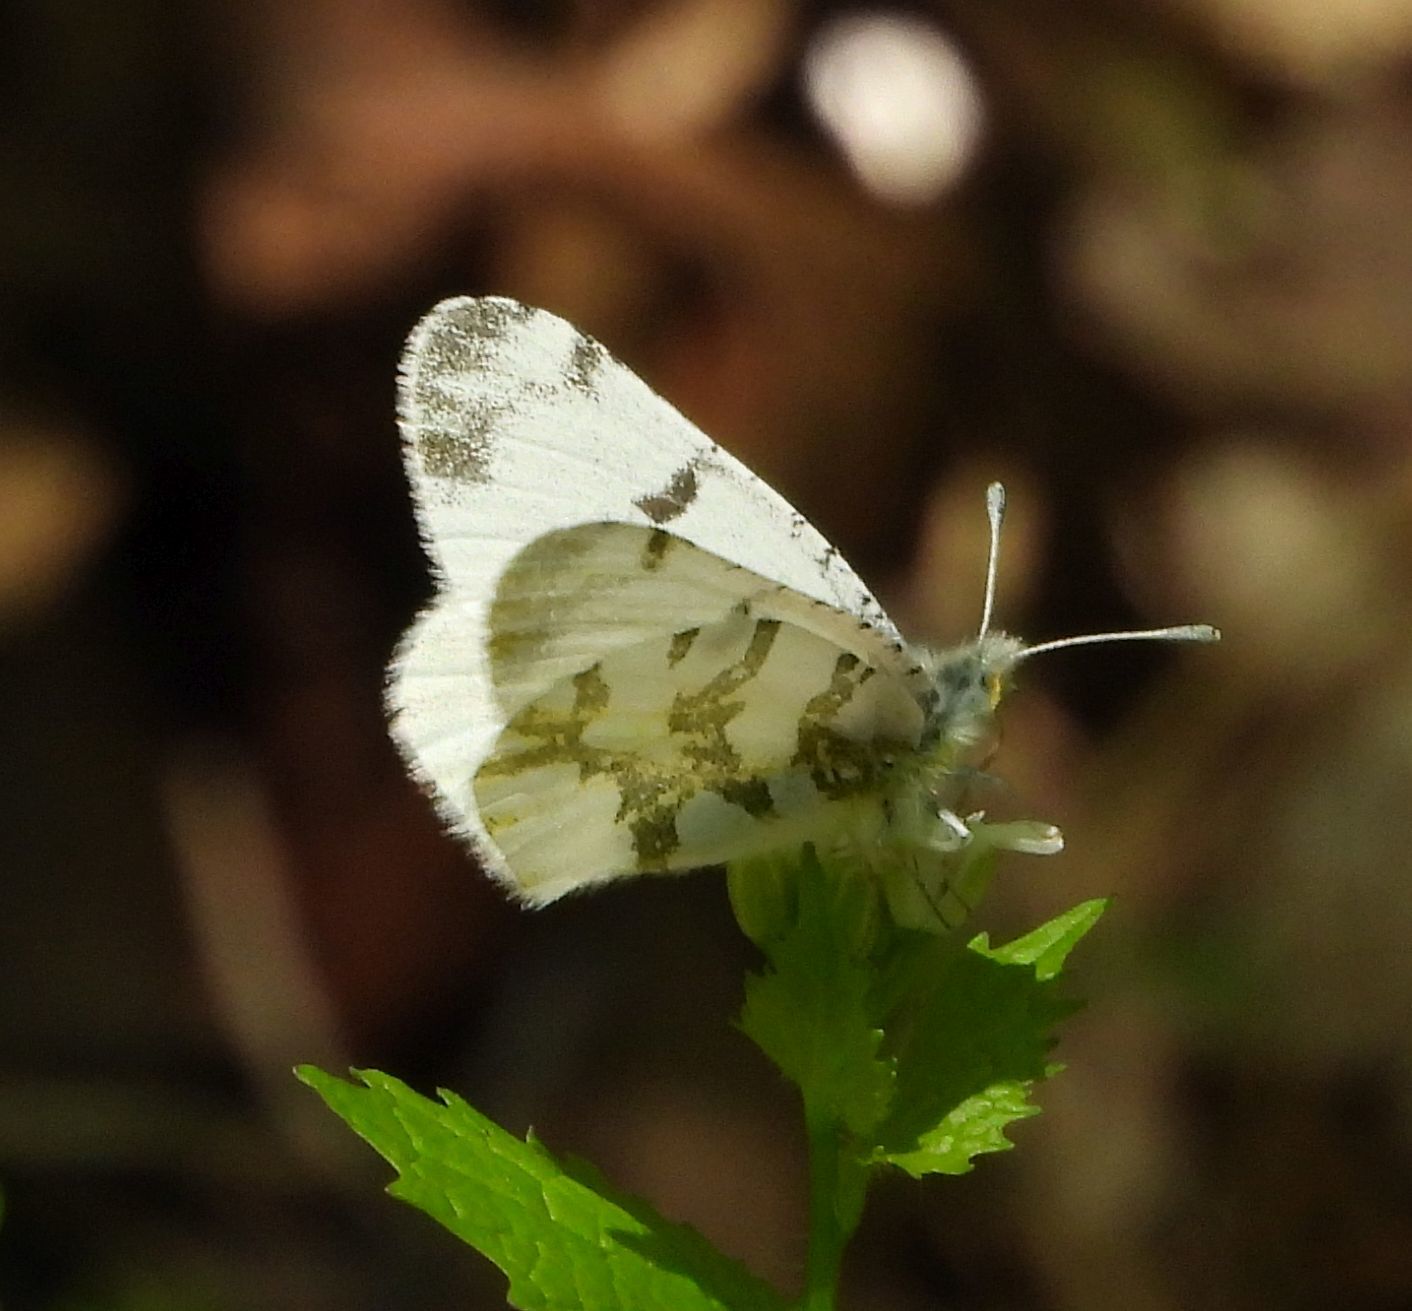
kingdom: Animalia
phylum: Arthropoda
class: Insecta
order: Lepidoptera
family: Pieridae
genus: Euchloe
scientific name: Euchloe olympia
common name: Olympia
